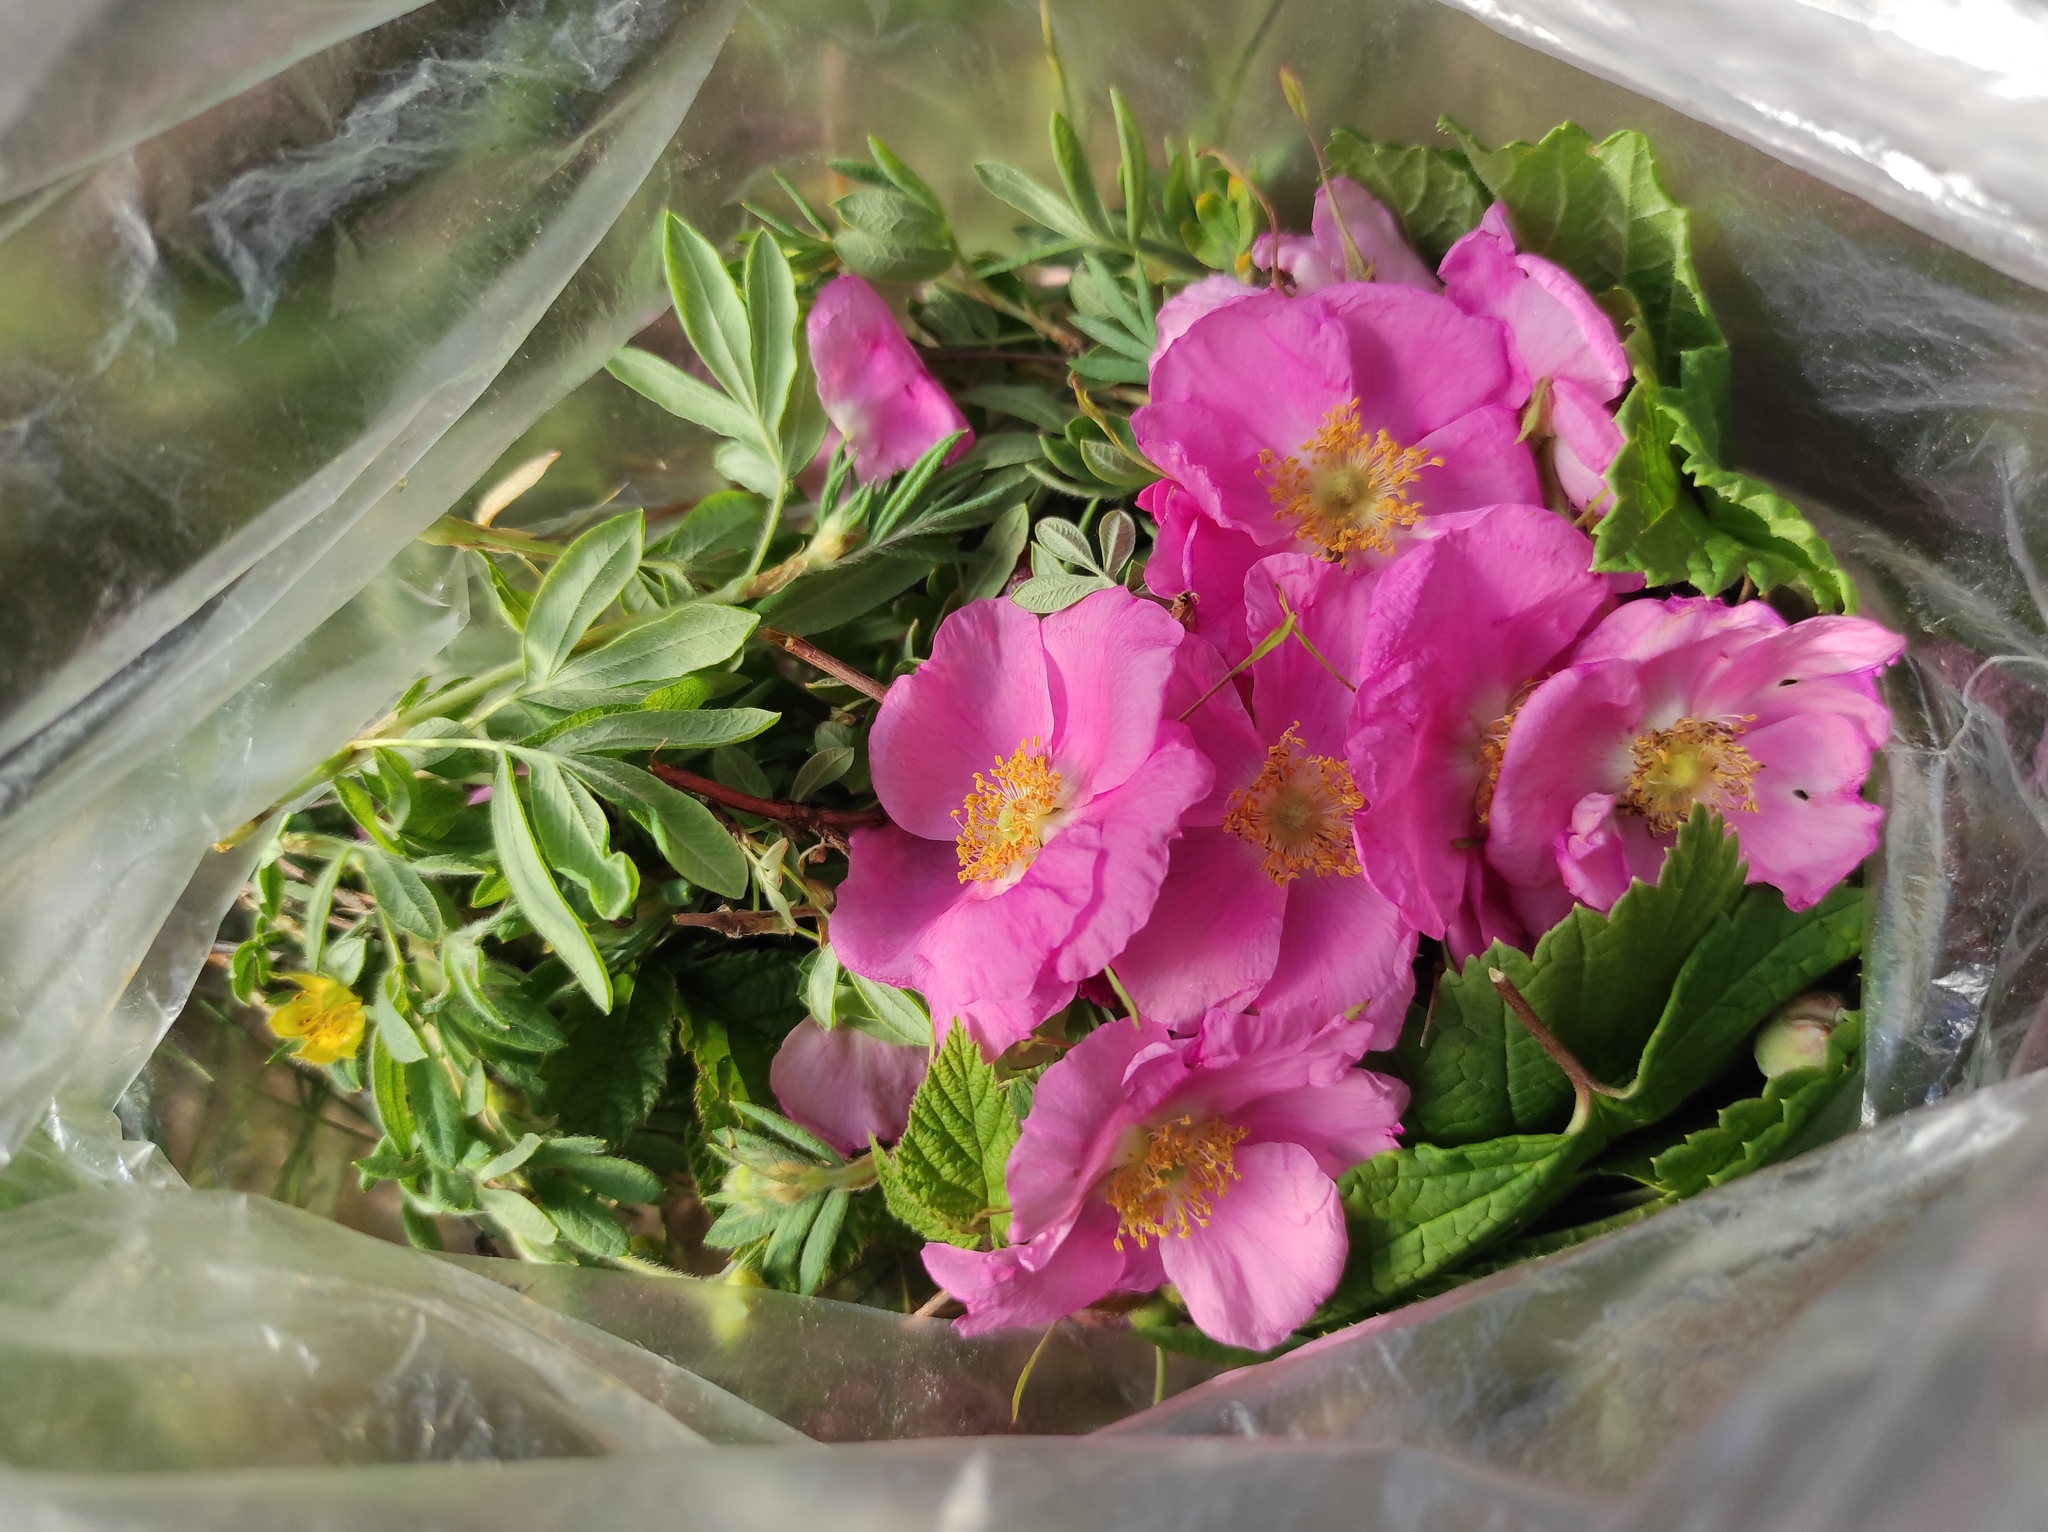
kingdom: Plantae
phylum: Tracheophyta
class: Magnoliopsida
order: Rosales
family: Rosaceae
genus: Dasiphora
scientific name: Dasiphora fruticosa
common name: Shrubby cinquefoil
